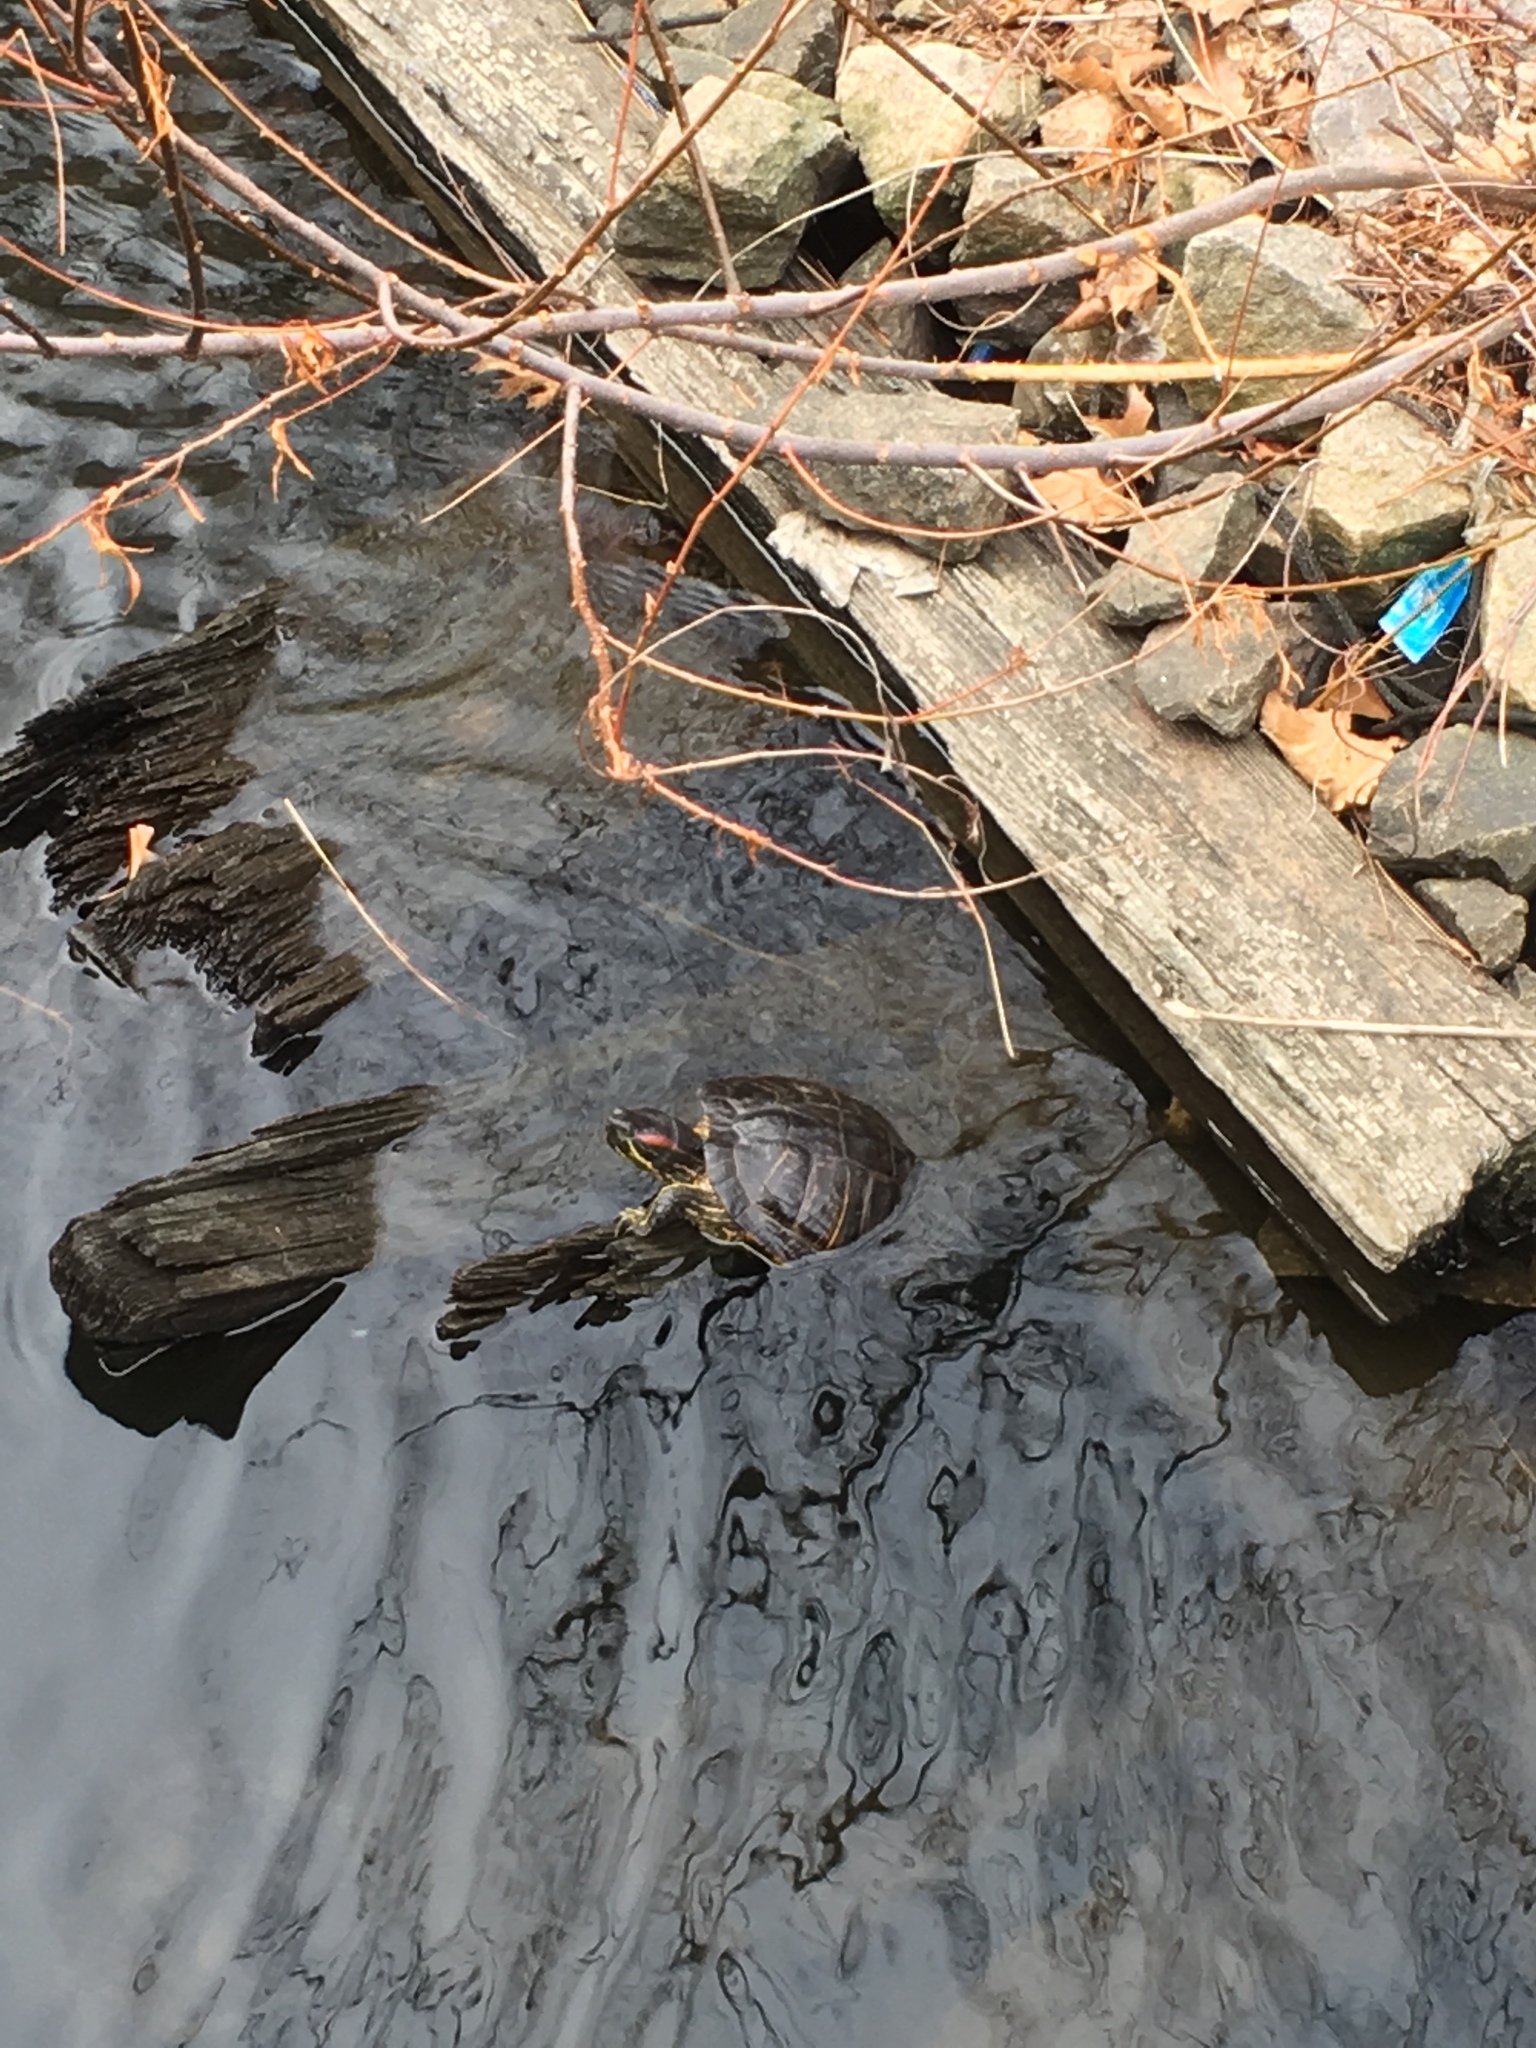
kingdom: Animalia
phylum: Chordata
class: Testudines
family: Emydidae
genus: Trachemys
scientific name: Trachemys scripta
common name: Slider
